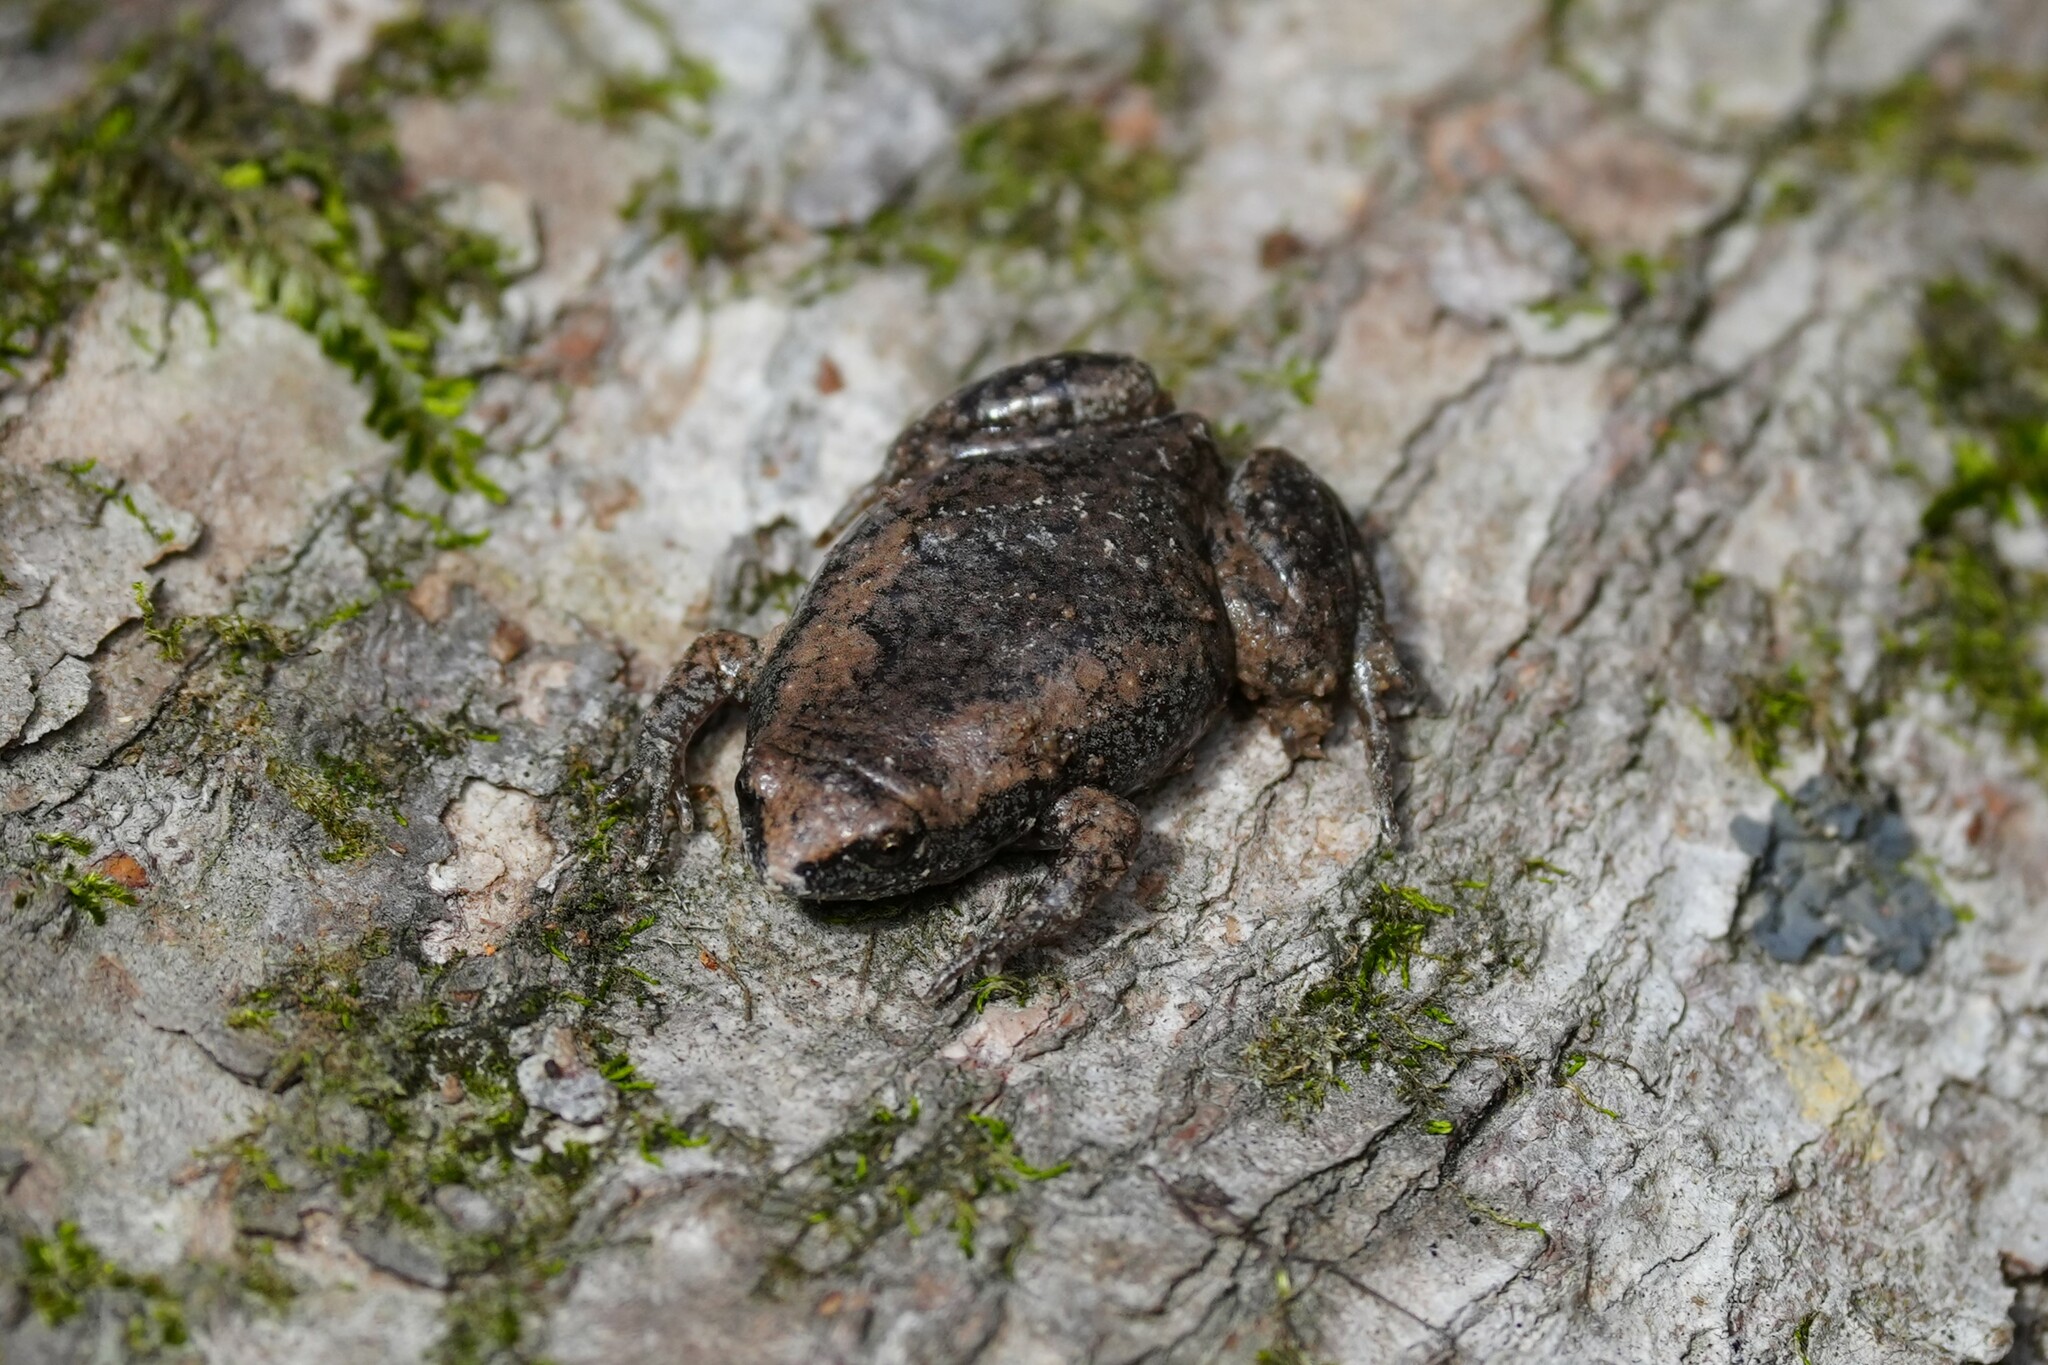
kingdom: Animalia
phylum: Chordata
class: Amphibia
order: Anura
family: Microhylidae
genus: Gastrophryne
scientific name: Gastrophryne carolinensis
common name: Eastern narrowmouth toad
